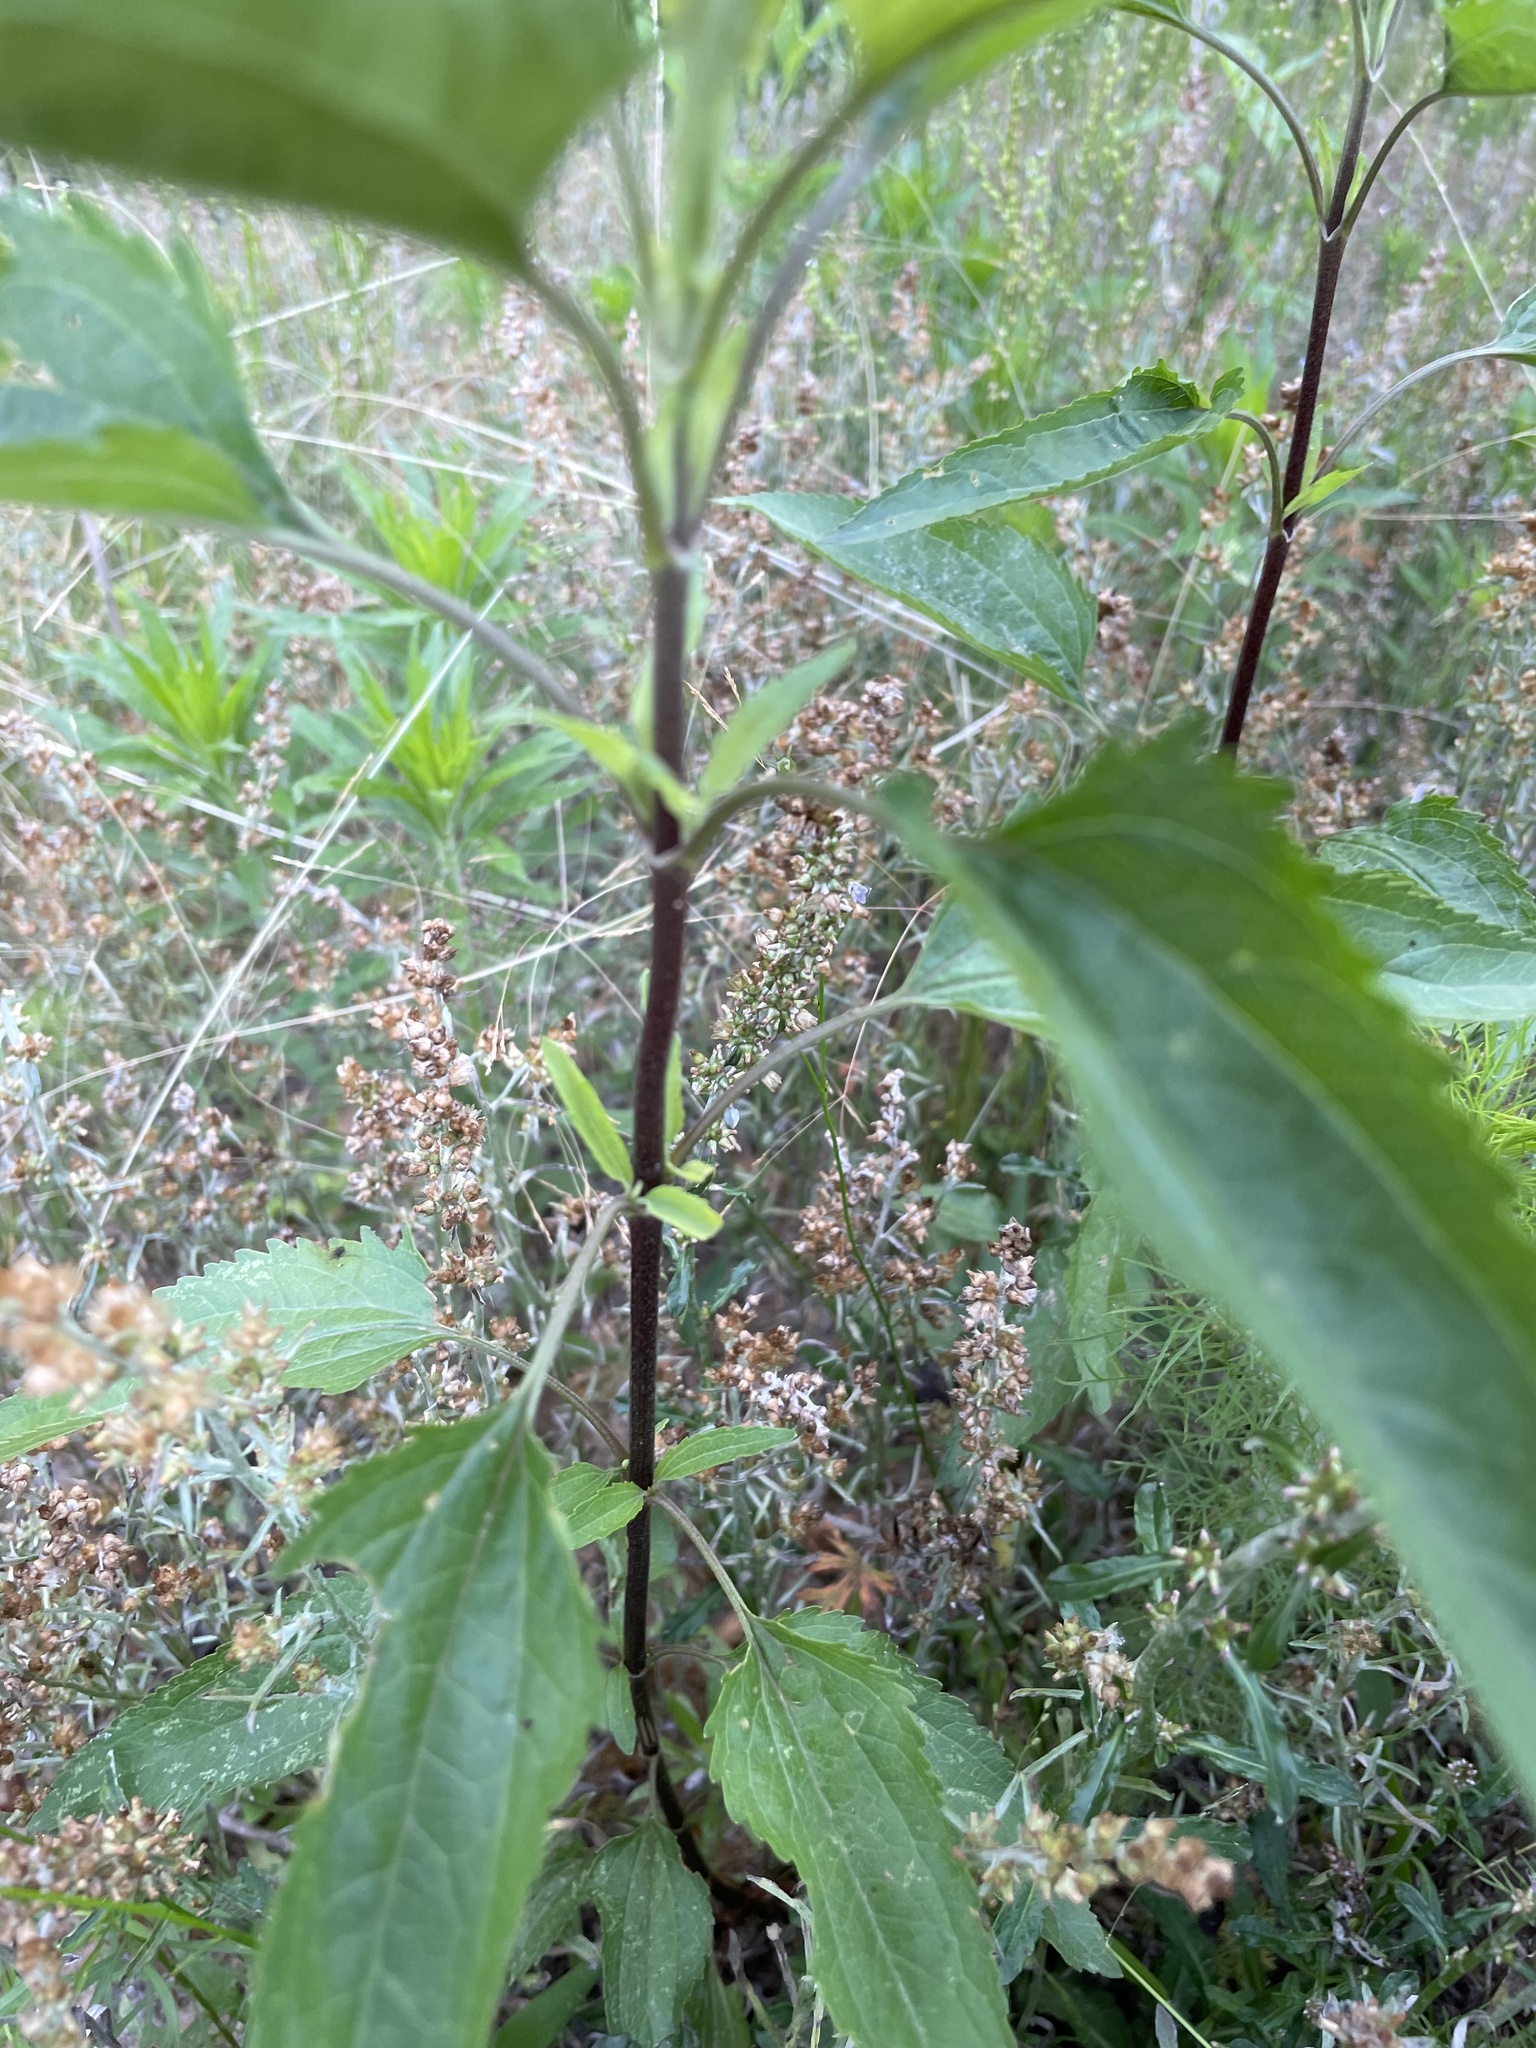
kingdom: Plantae
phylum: Tracheophyta
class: Magnoliopsida
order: Asterales
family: Asteraceae
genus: Eupatorium
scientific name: Eupatorium serotinum
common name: Late boneset
